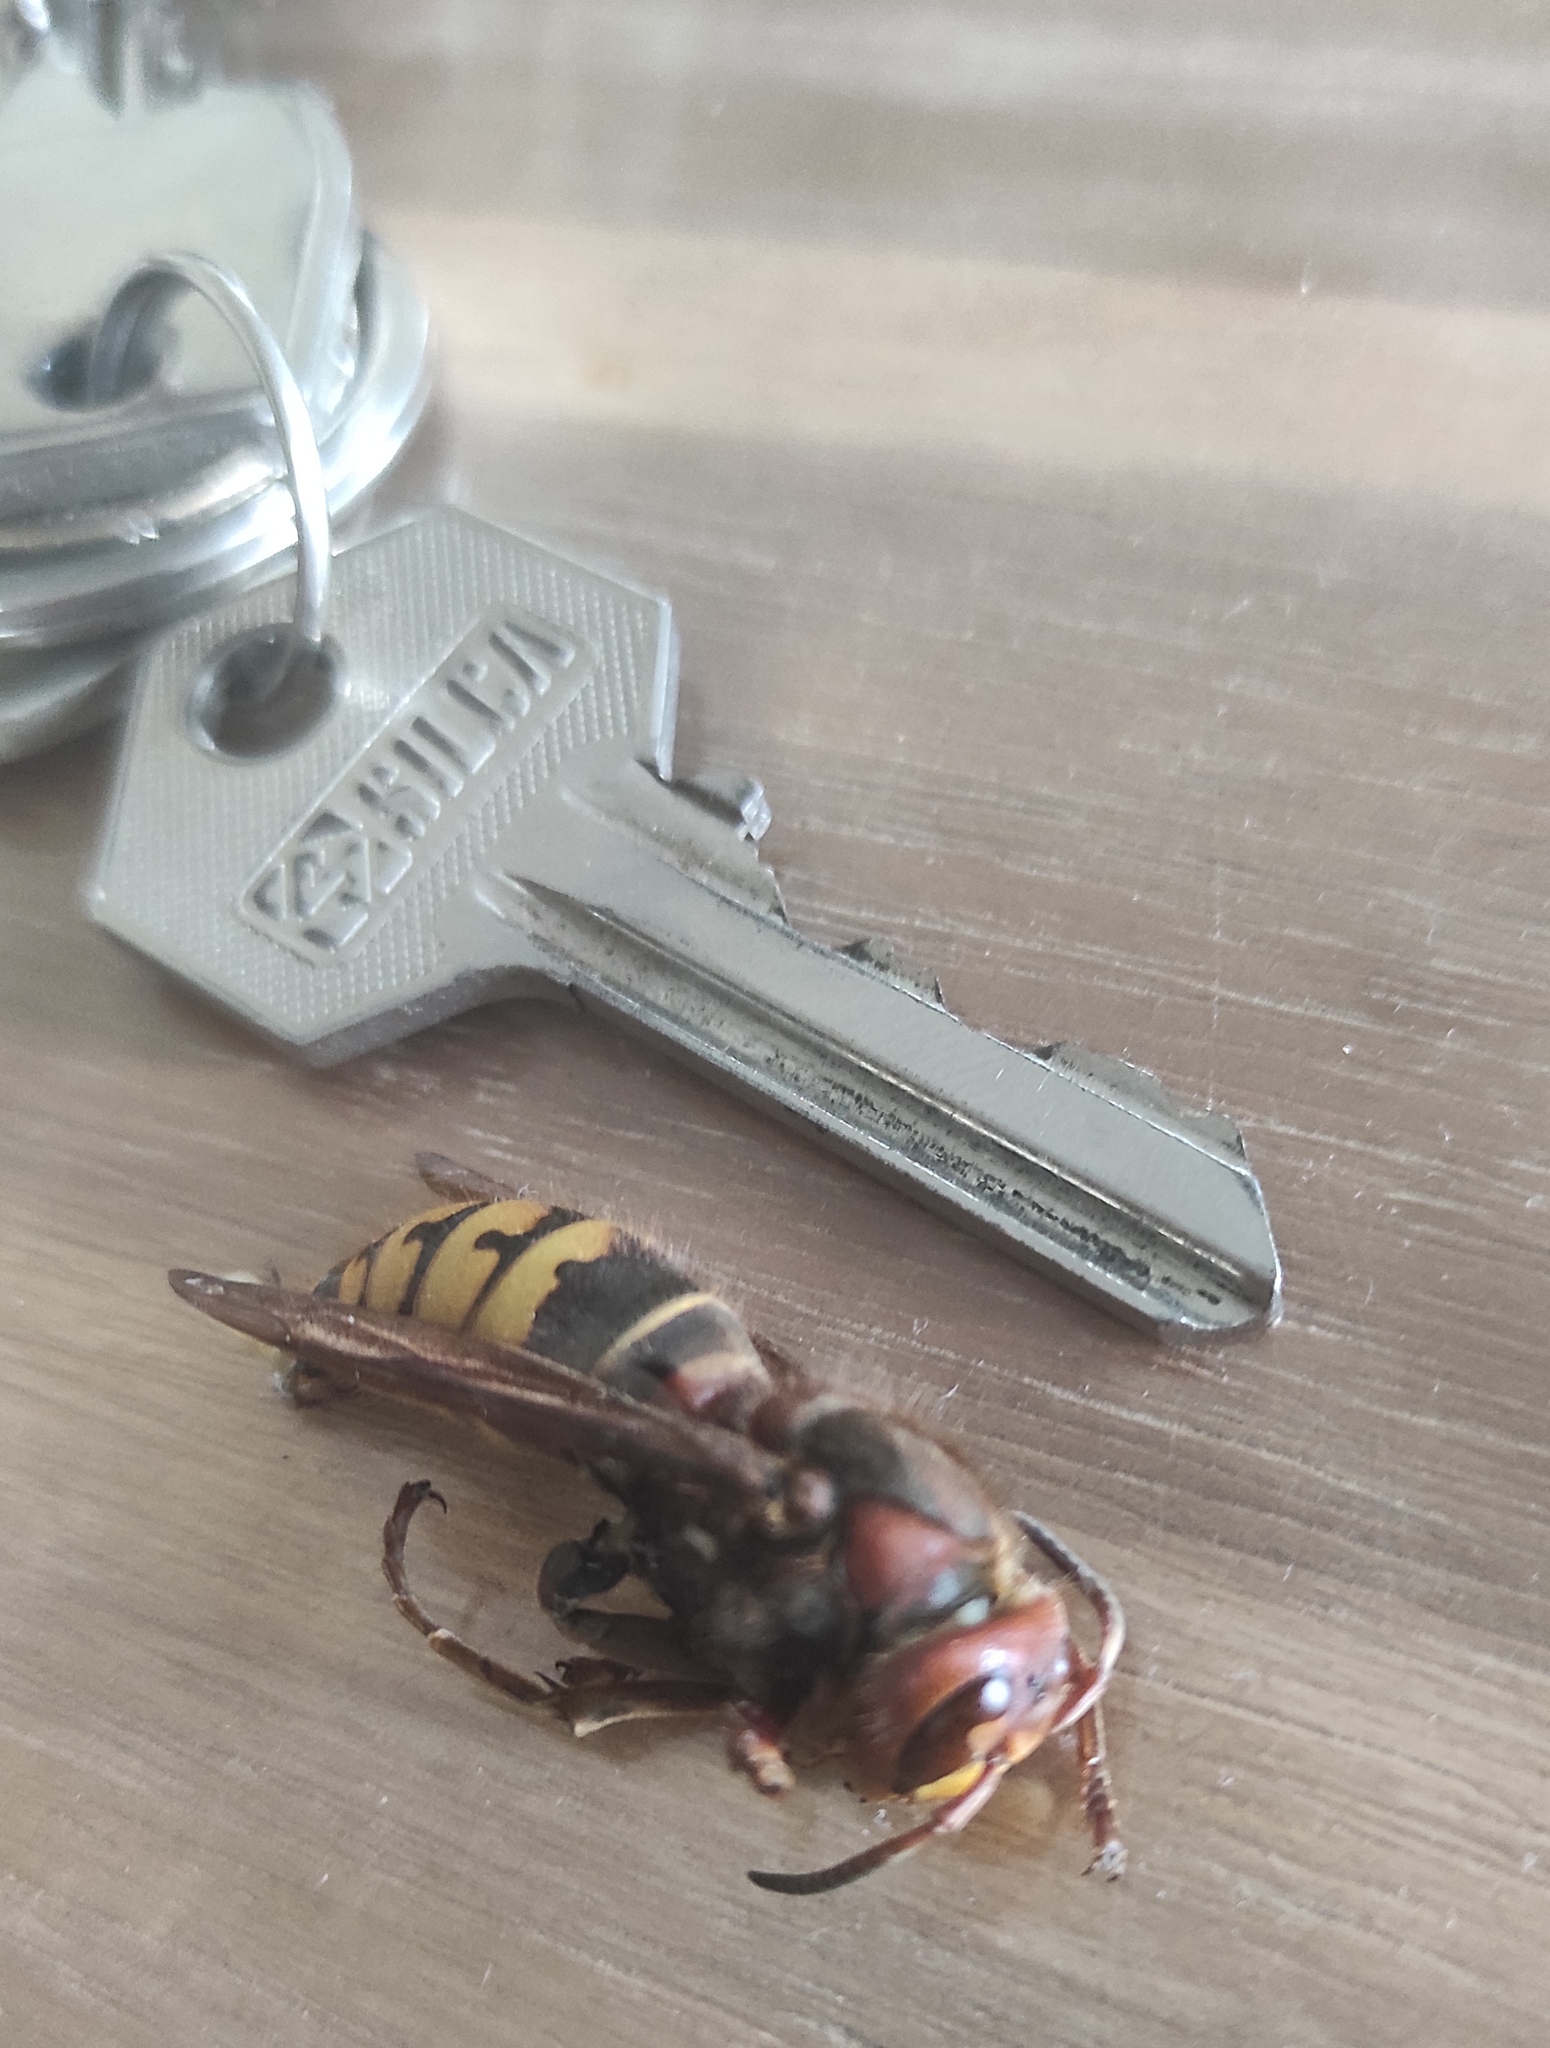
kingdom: Animalia
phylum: Arthropoda
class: Insecta
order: Hymenoptera
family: Vespidae
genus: Vespa
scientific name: Vespa crabro
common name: Hornet
